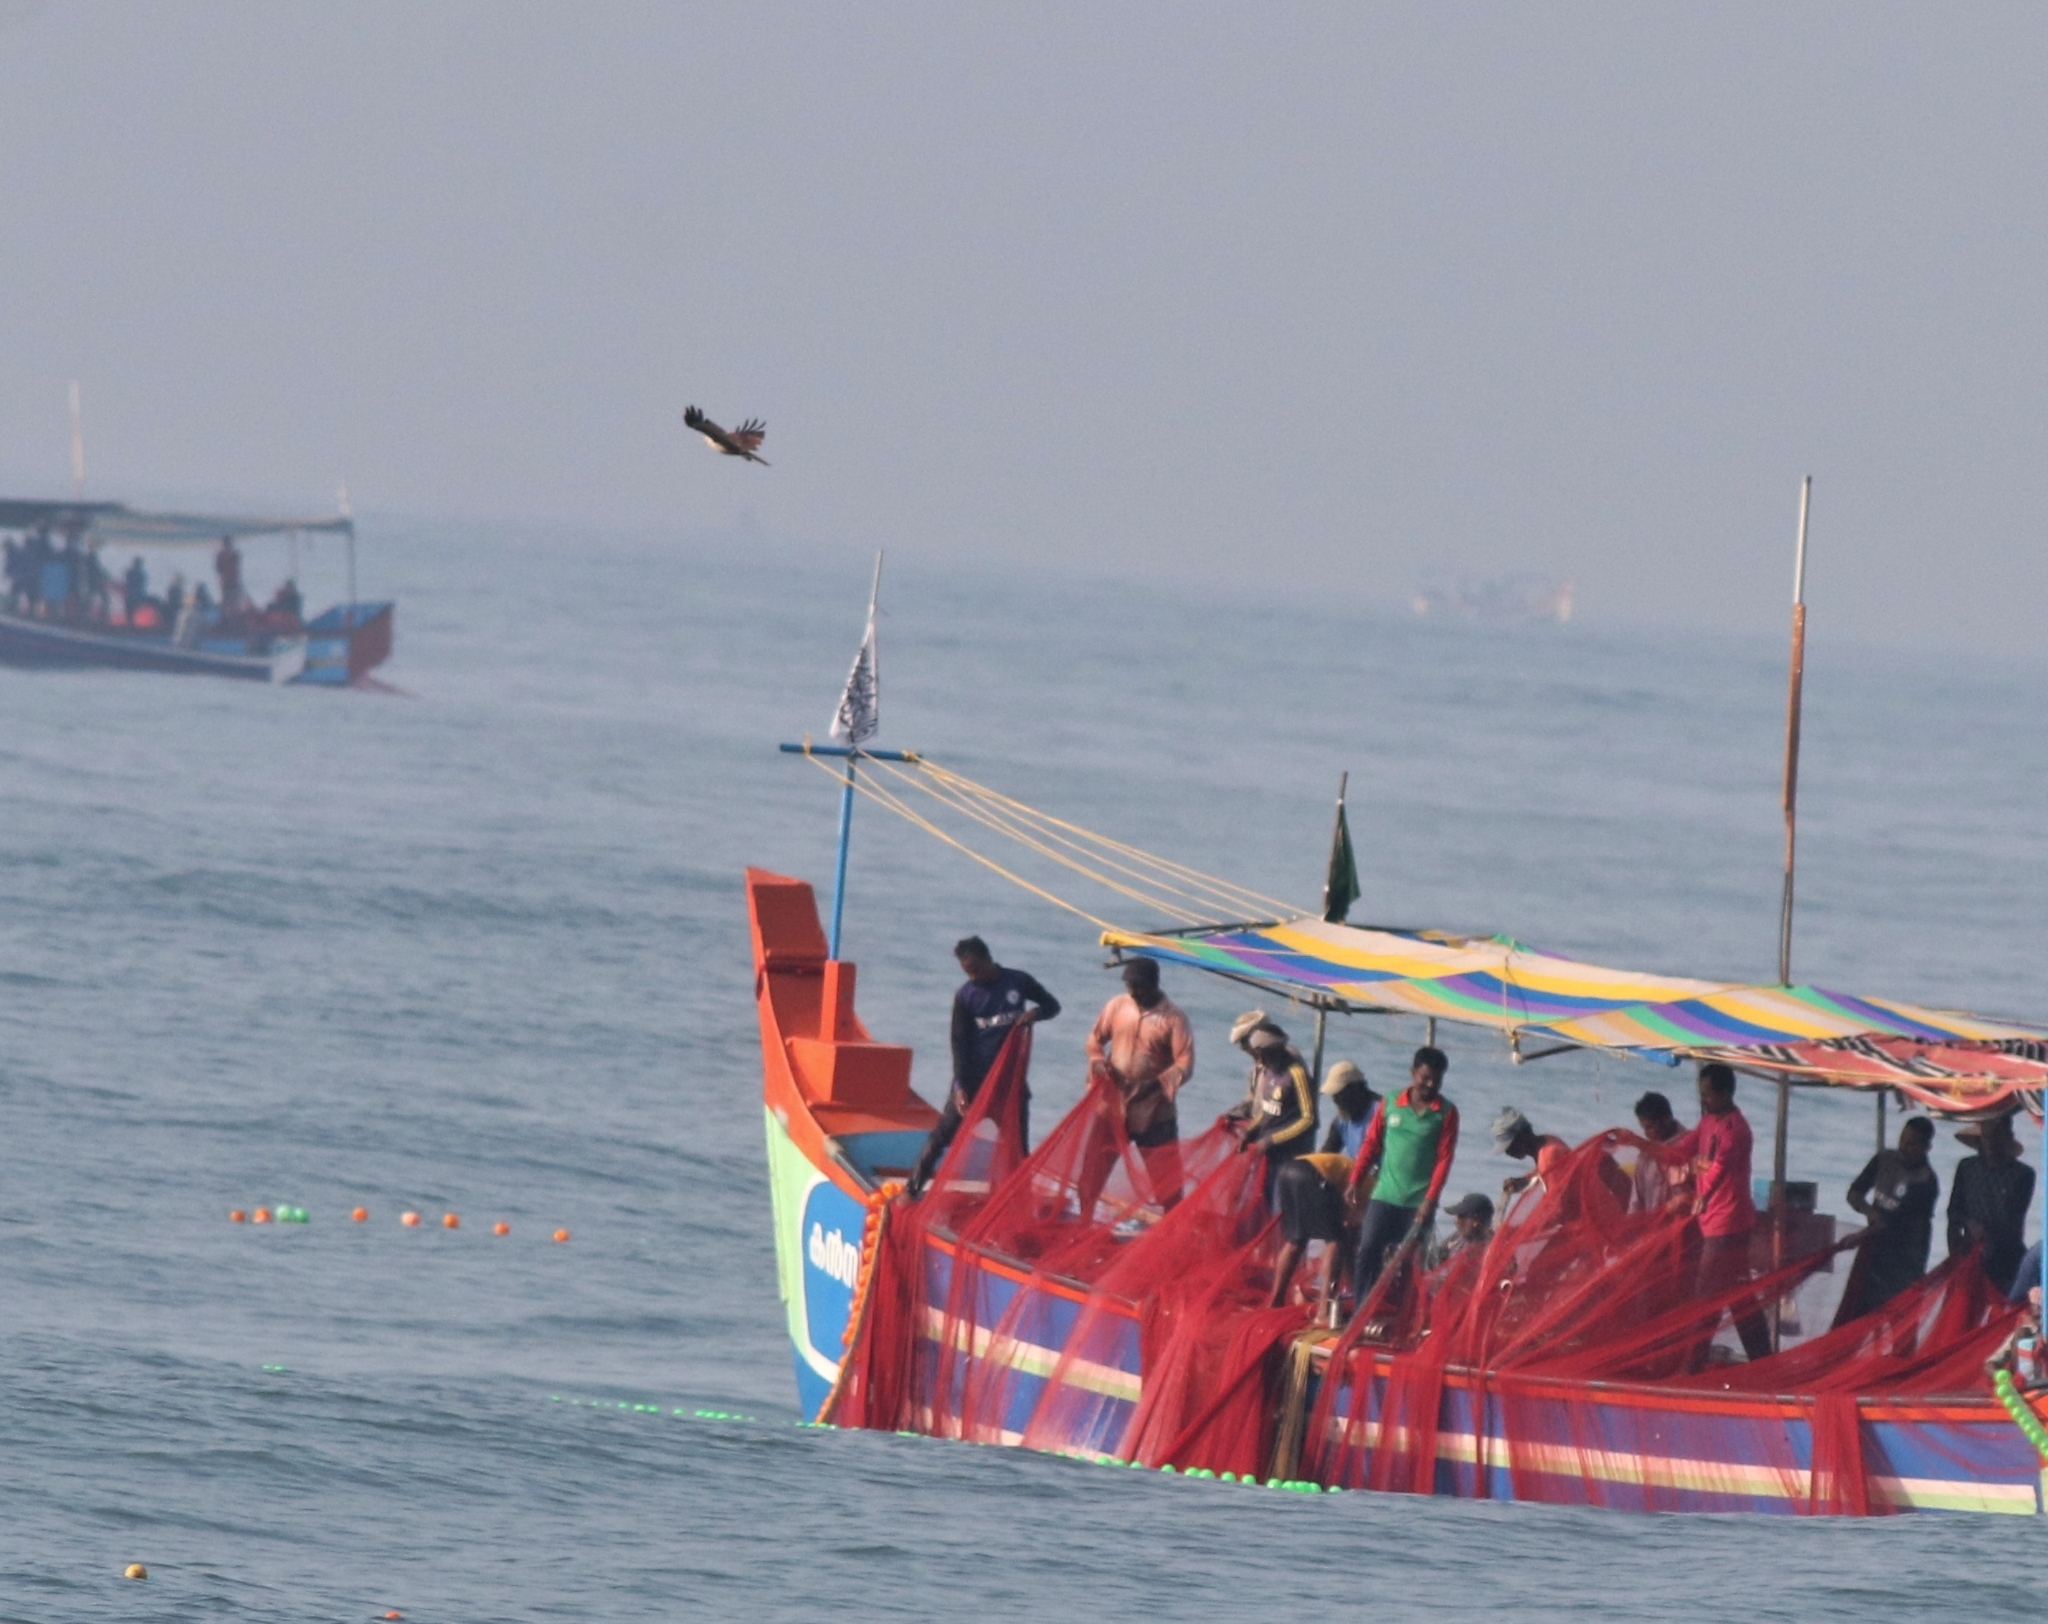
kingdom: Animalia
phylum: Chordata
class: Aves
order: Accipitriformes
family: Accipitridae
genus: Haliastur
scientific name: Haliastur indus
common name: Brahminy kite
